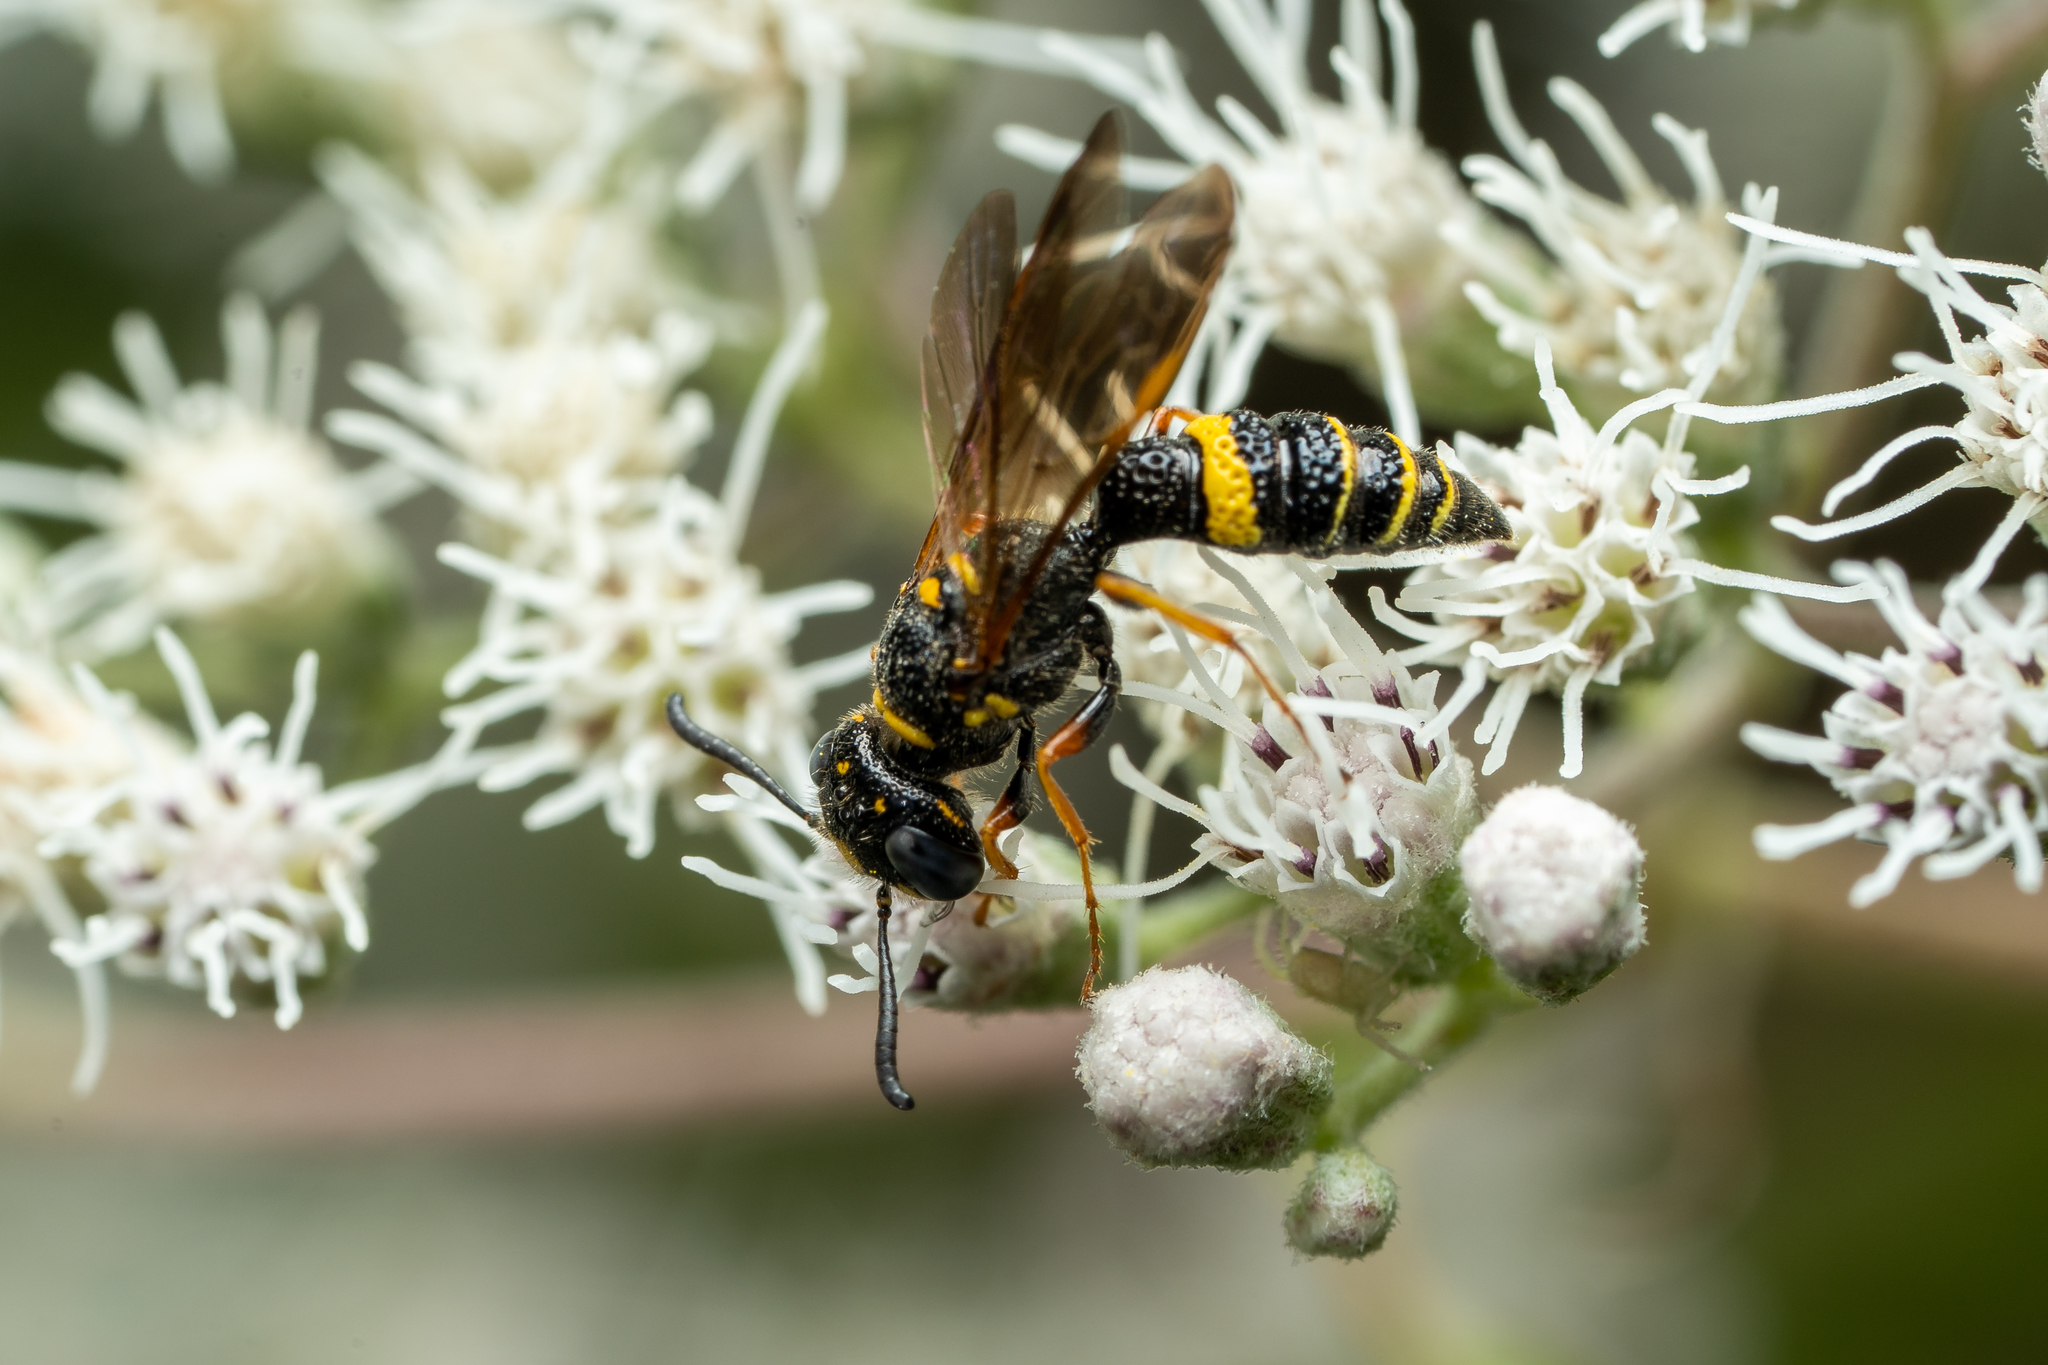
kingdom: Animalia
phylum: Arthropoda
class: Insecta
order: Hymenoptera
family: Crabronidae
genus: Philanthus
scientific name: Philanthus gibbosus
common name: Humped beewolf
